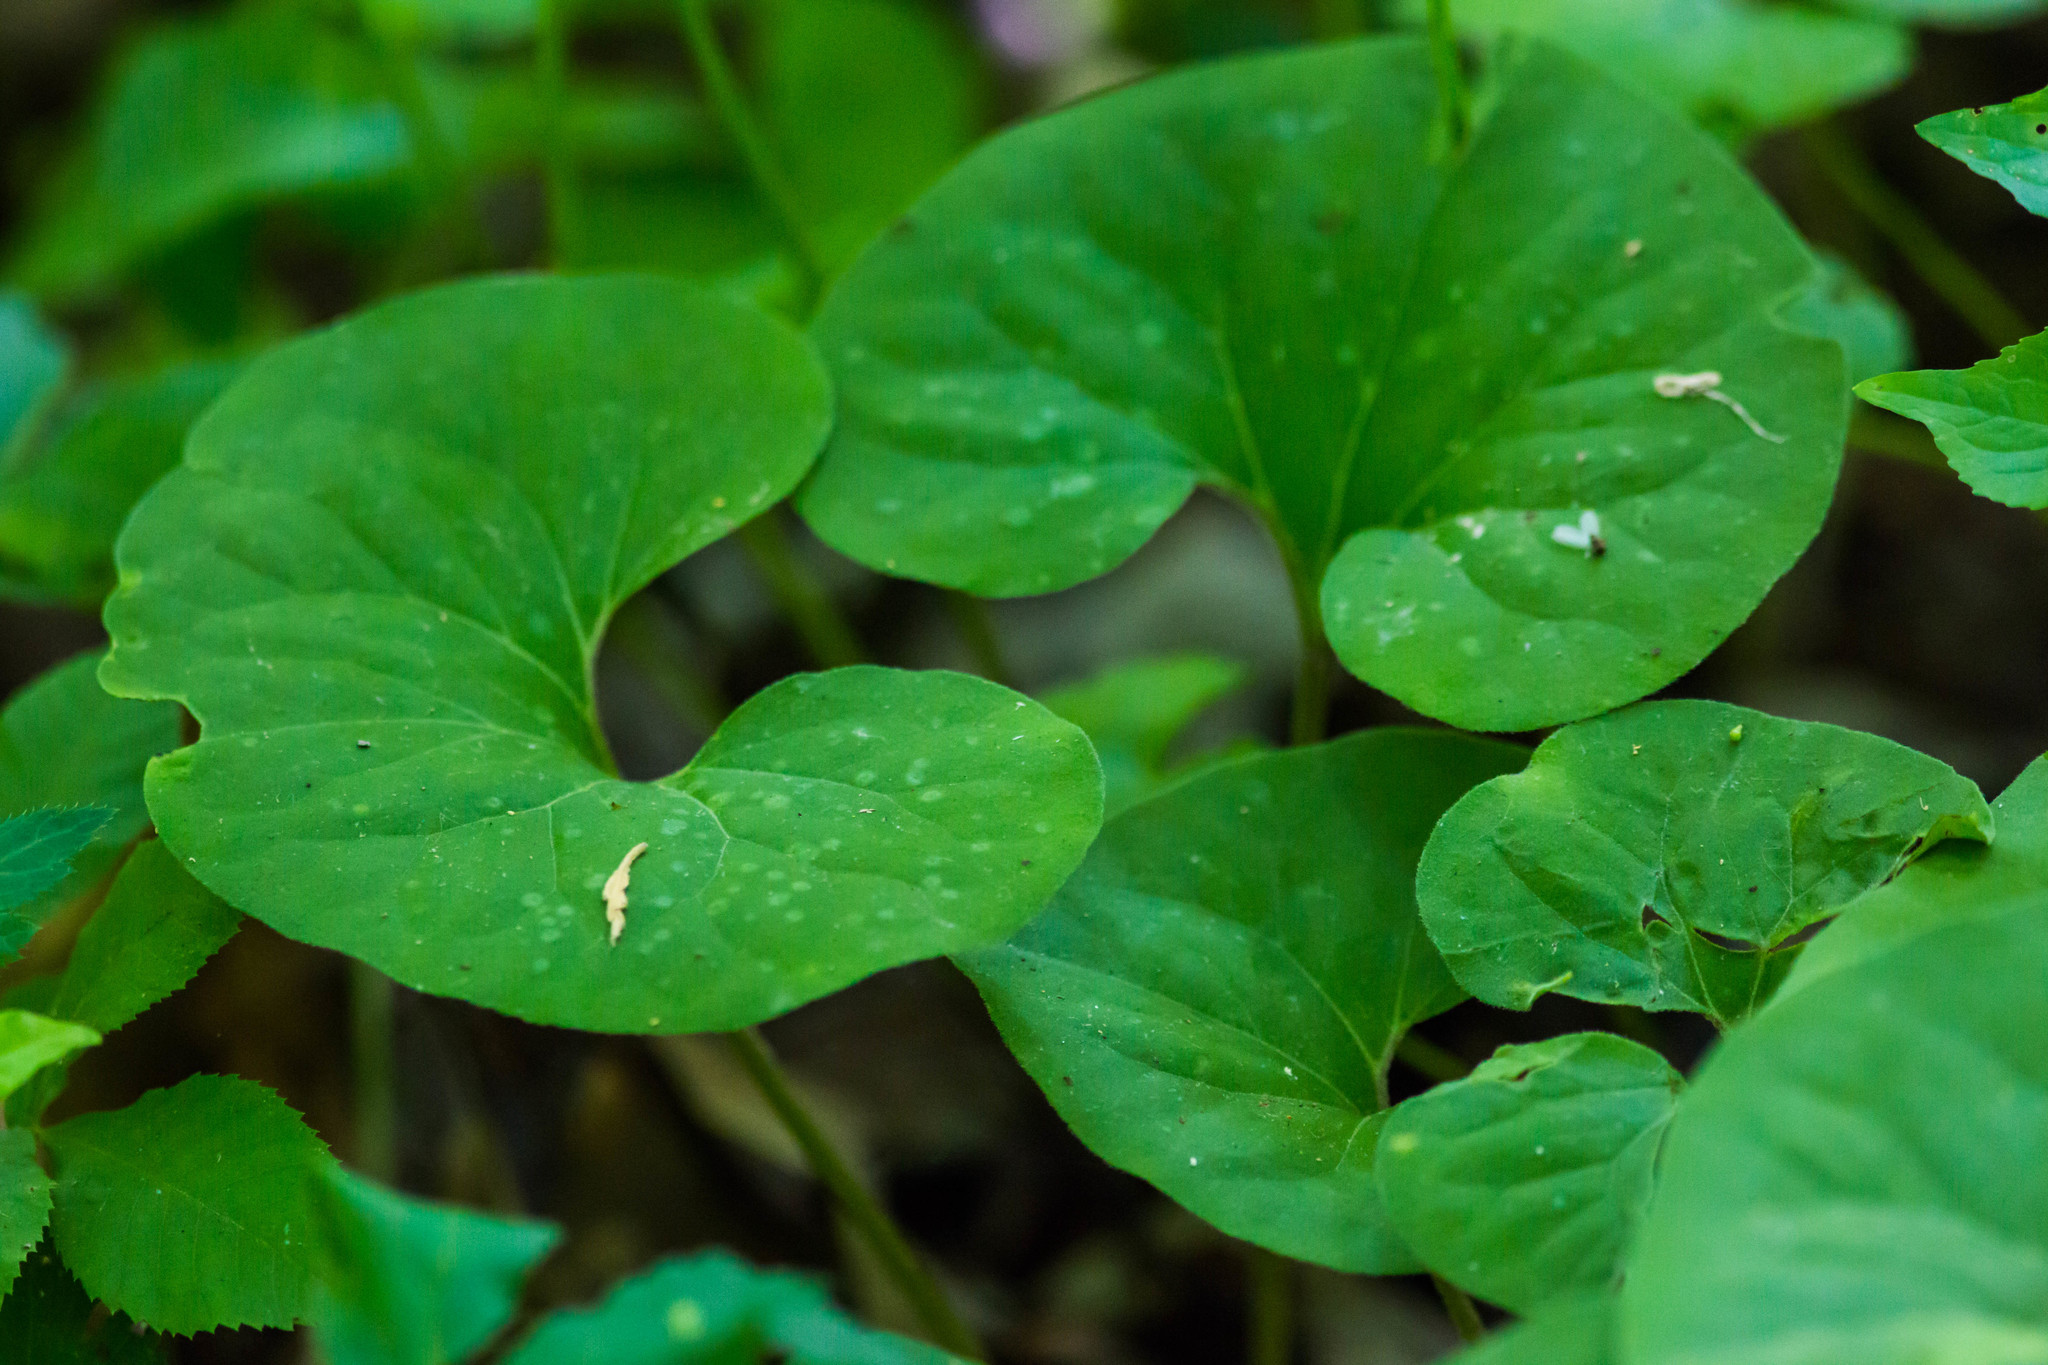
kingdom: Plantae
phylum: Tracheophyta
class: Magnoliopsida
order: Piperales
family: Aristolochiaceae
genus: Asarum
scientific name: Asarum canadense
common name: Wild ginger
